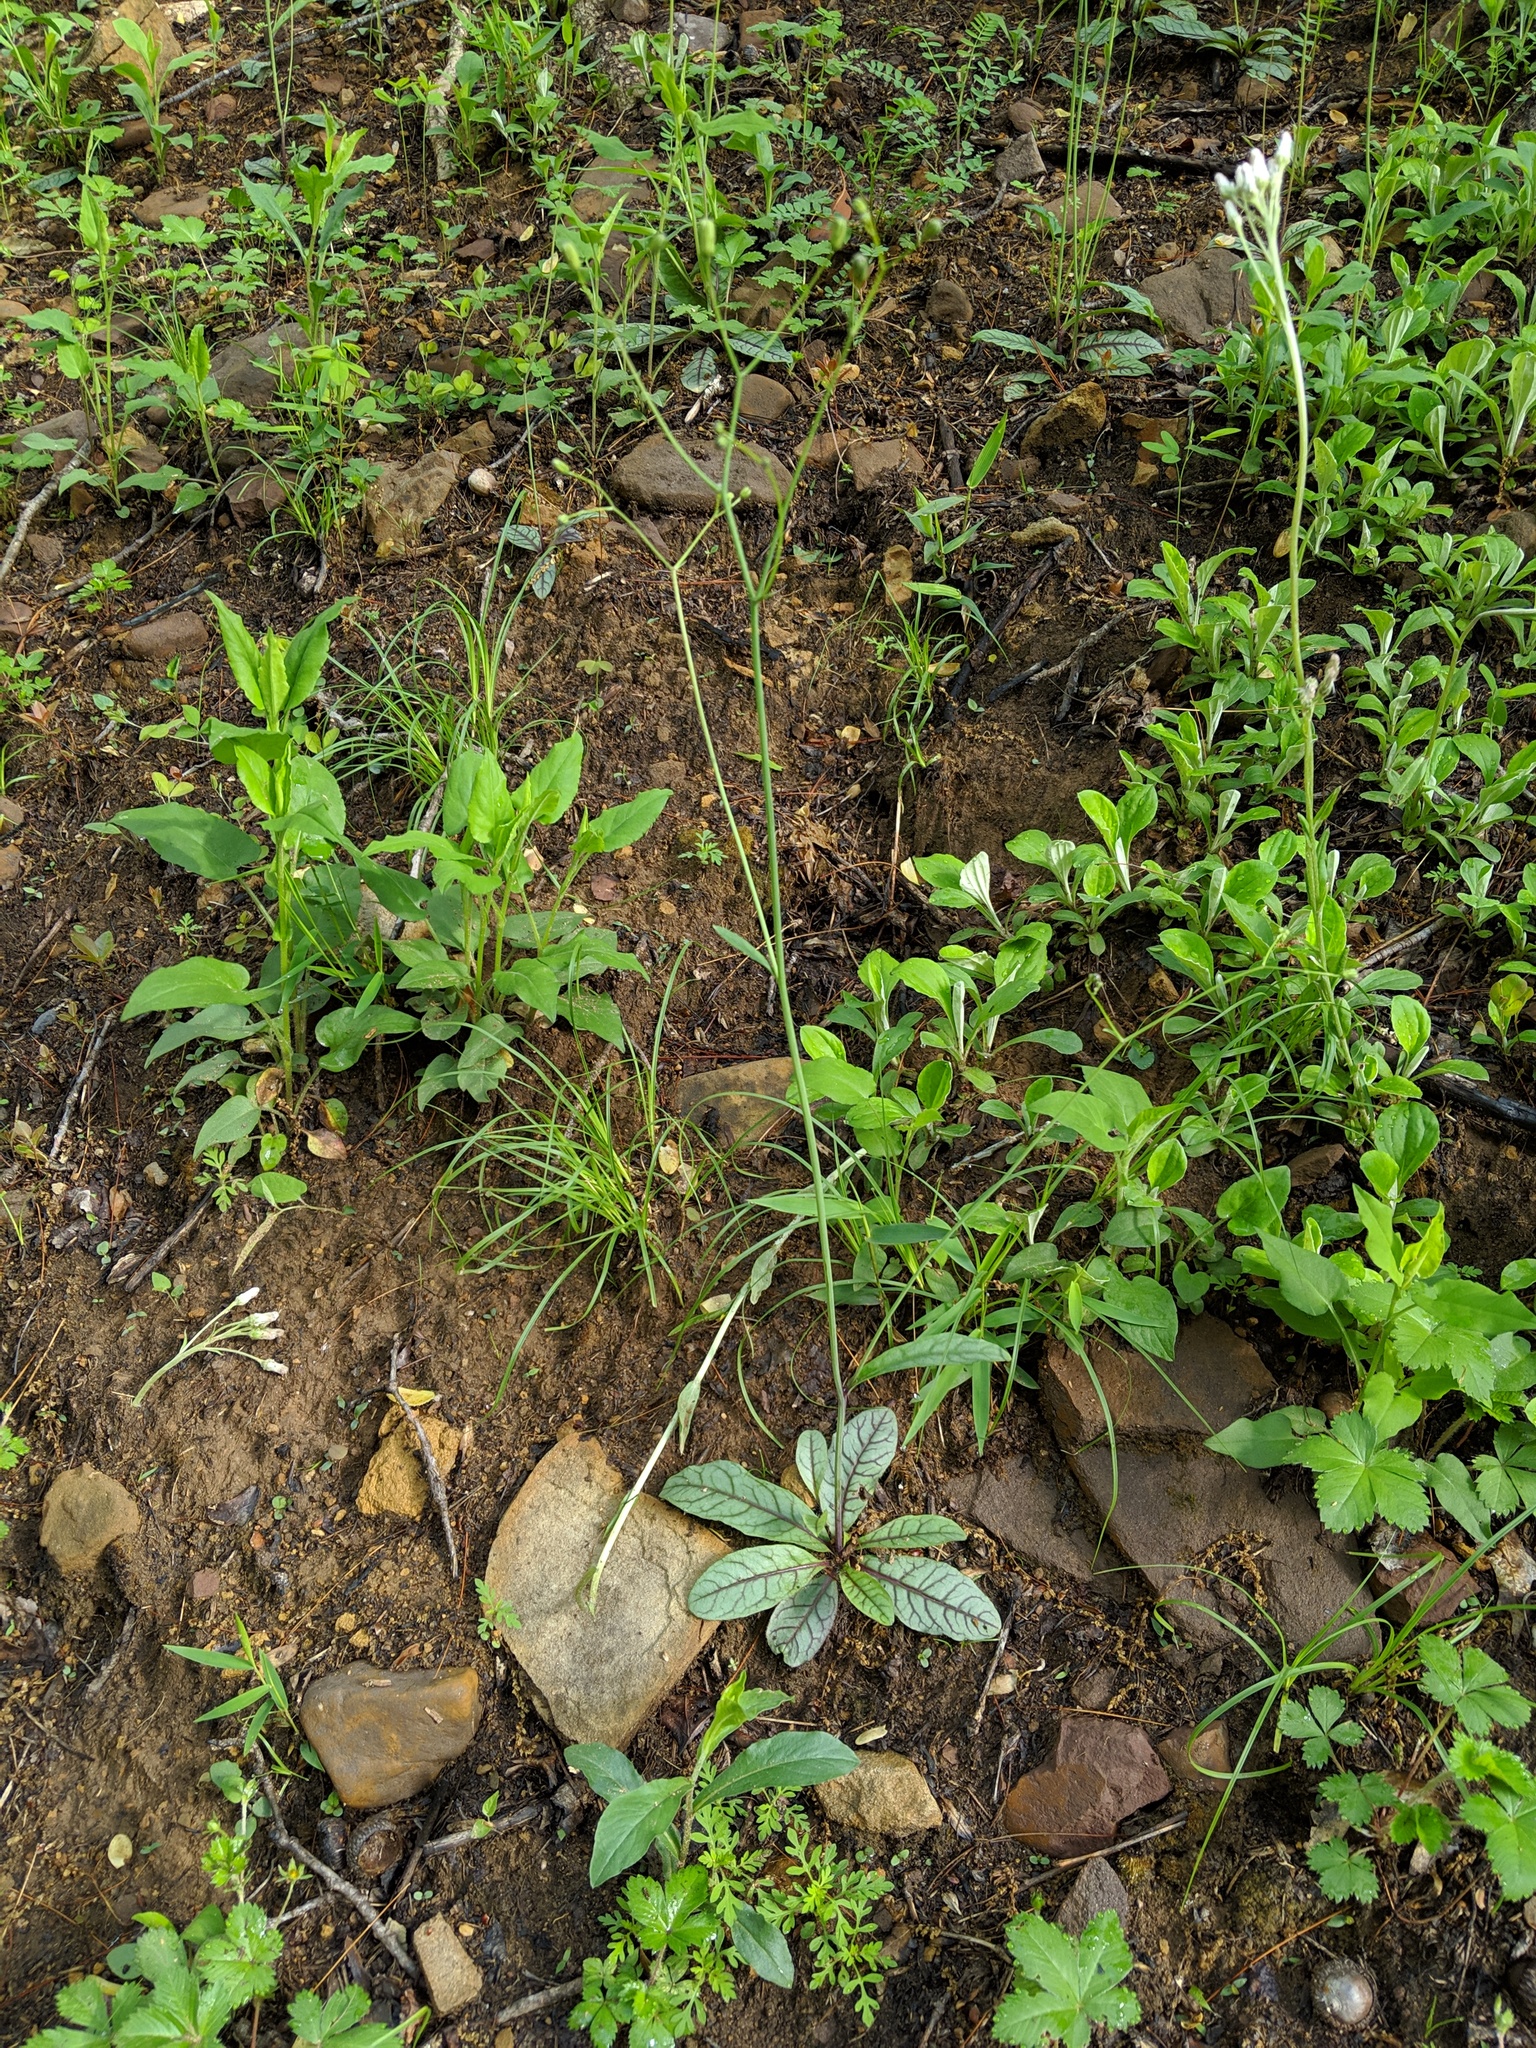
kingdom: Plantae
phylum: Tracheophyta
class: Magnoliopsida
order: Asterales
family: Asteraceae
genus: Hieracium
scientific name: Hieracium venosum
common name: Rattlesnake hawkweed
